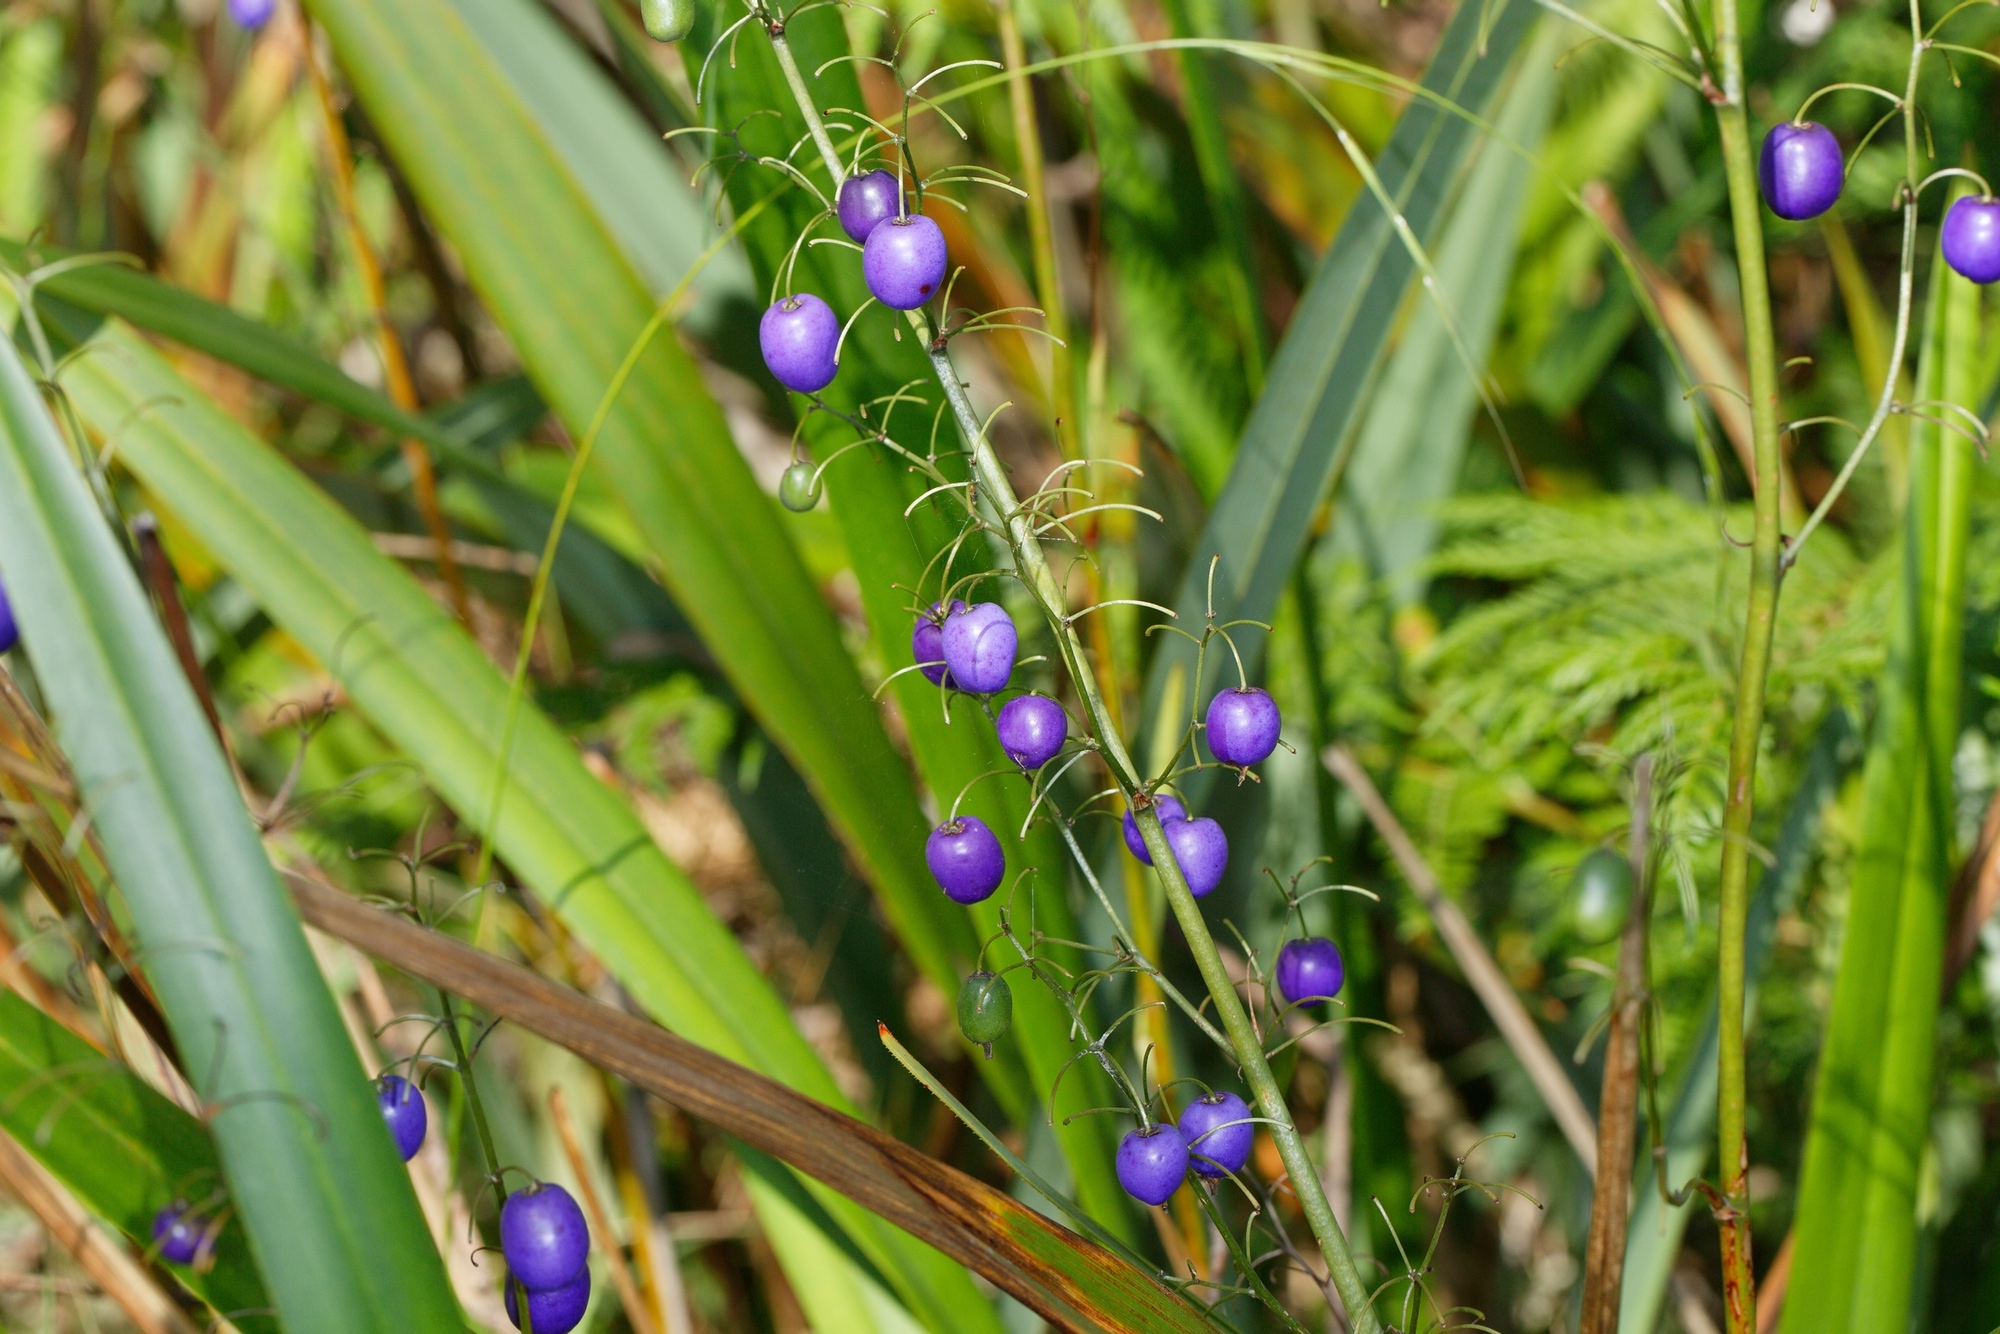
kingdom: Plantae
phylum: Tracheophyta
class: Liliopsida
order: Asparagales
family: Asphodelaceae
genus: Dianella
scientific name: Dianella tasmanica
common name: Tasman flax-lily
